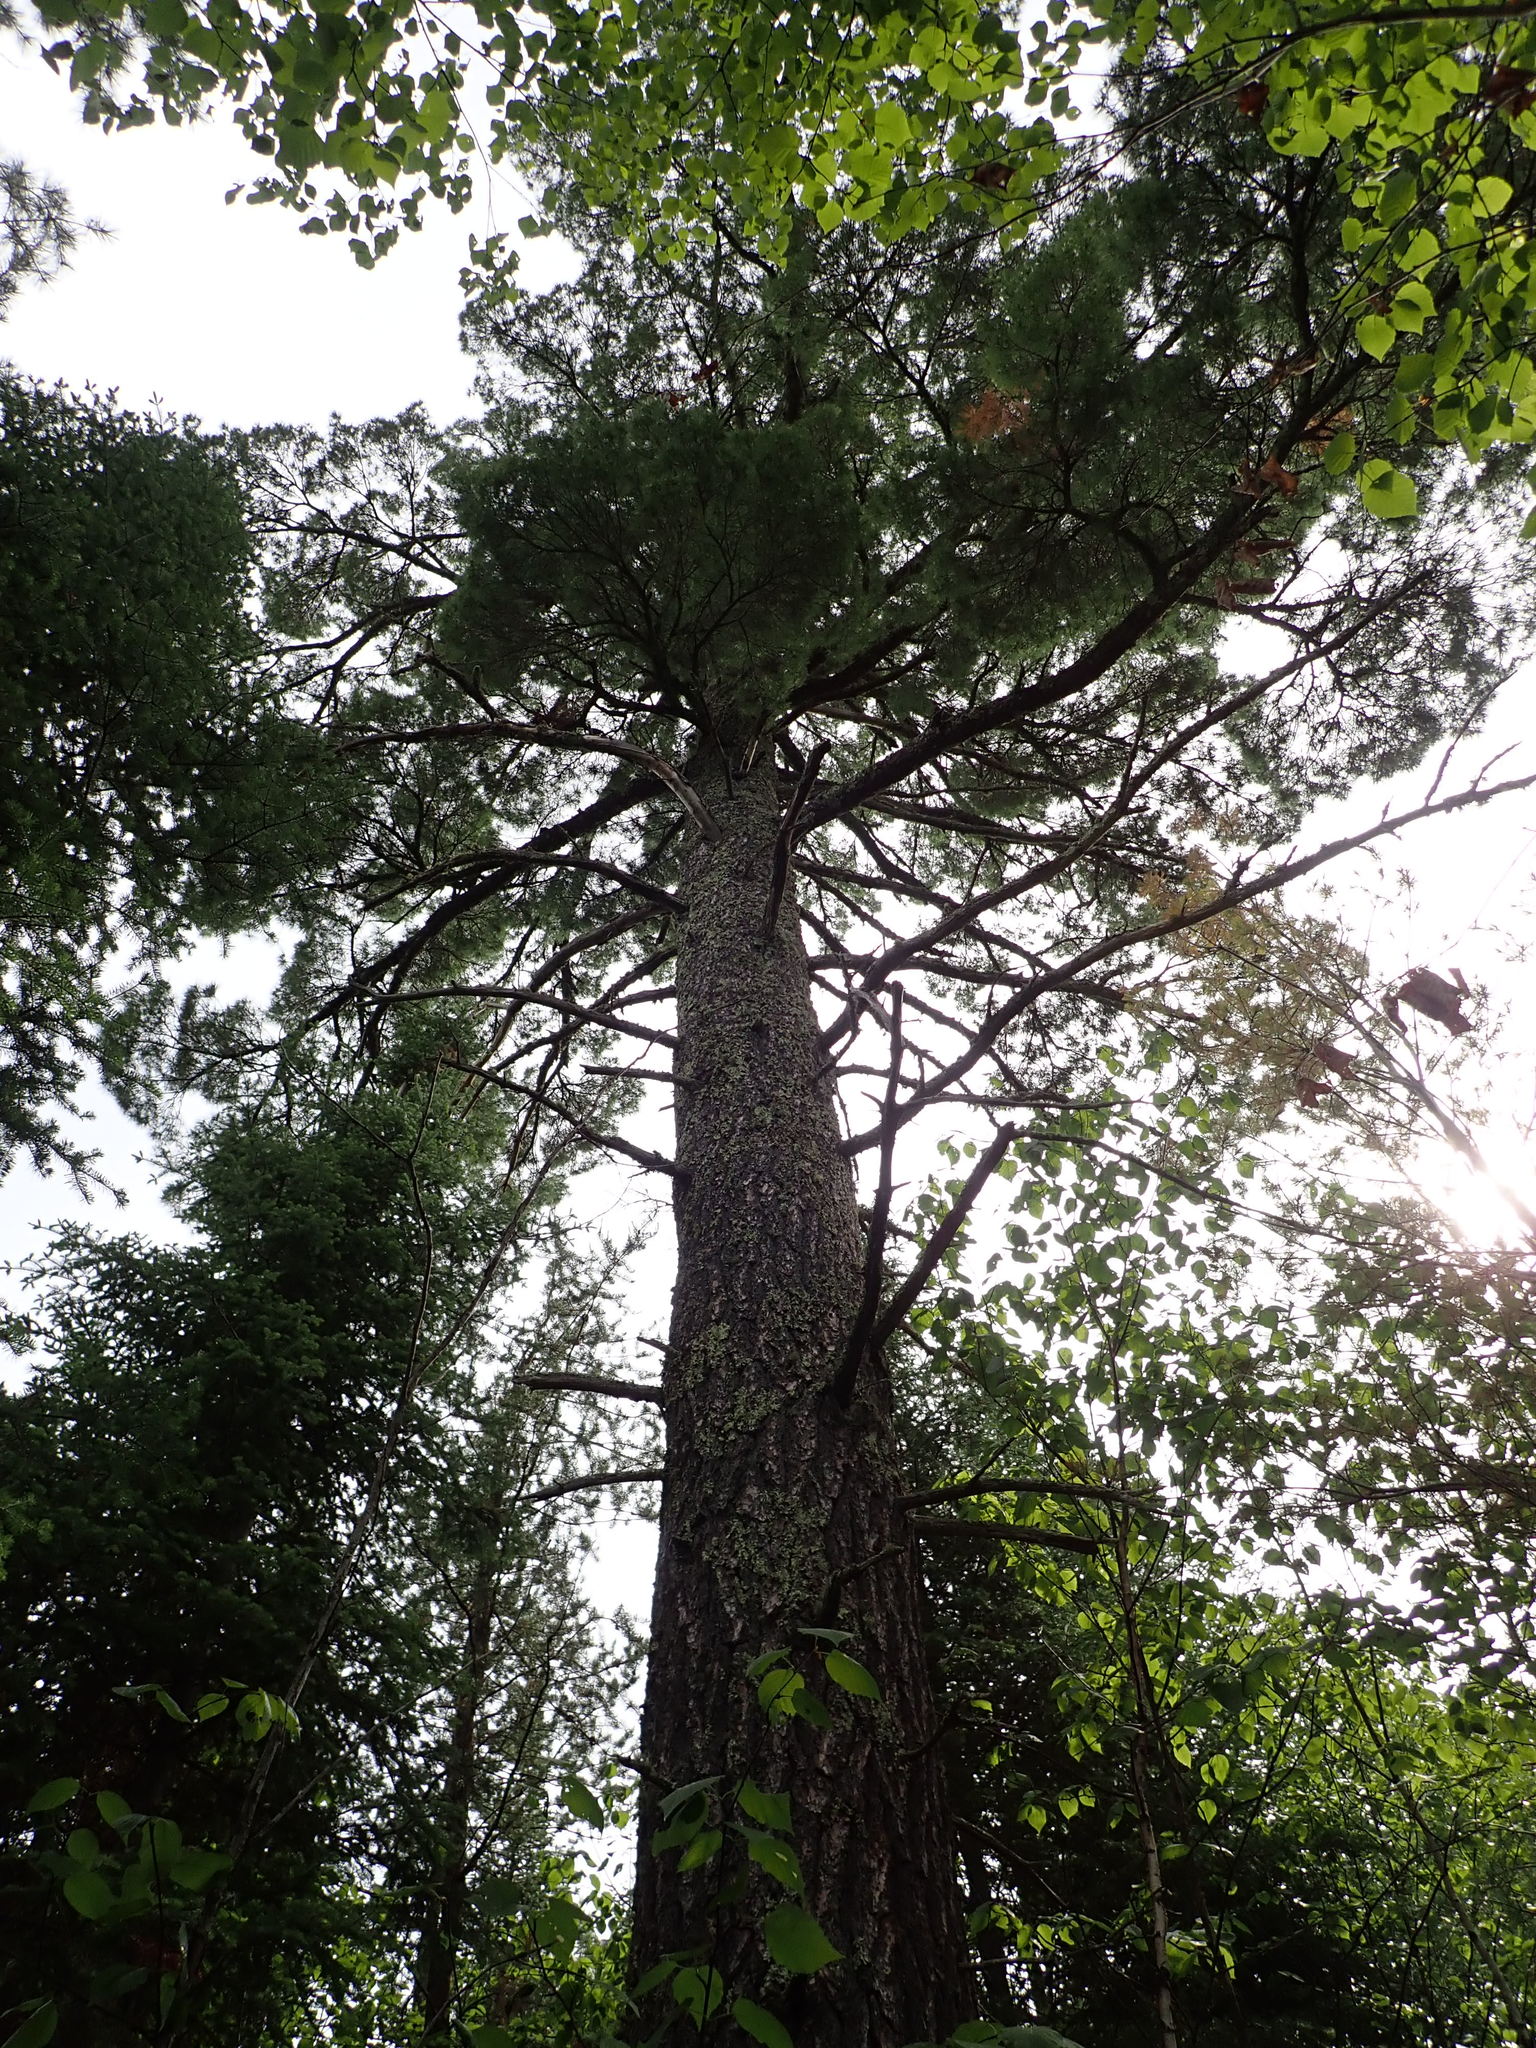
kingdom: Plantae
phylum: Tracheophyta
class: Pinopsida
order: Pinales
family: Pinaceae
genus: Pinus
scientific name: Pinus strobus
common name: Weymouth pine
